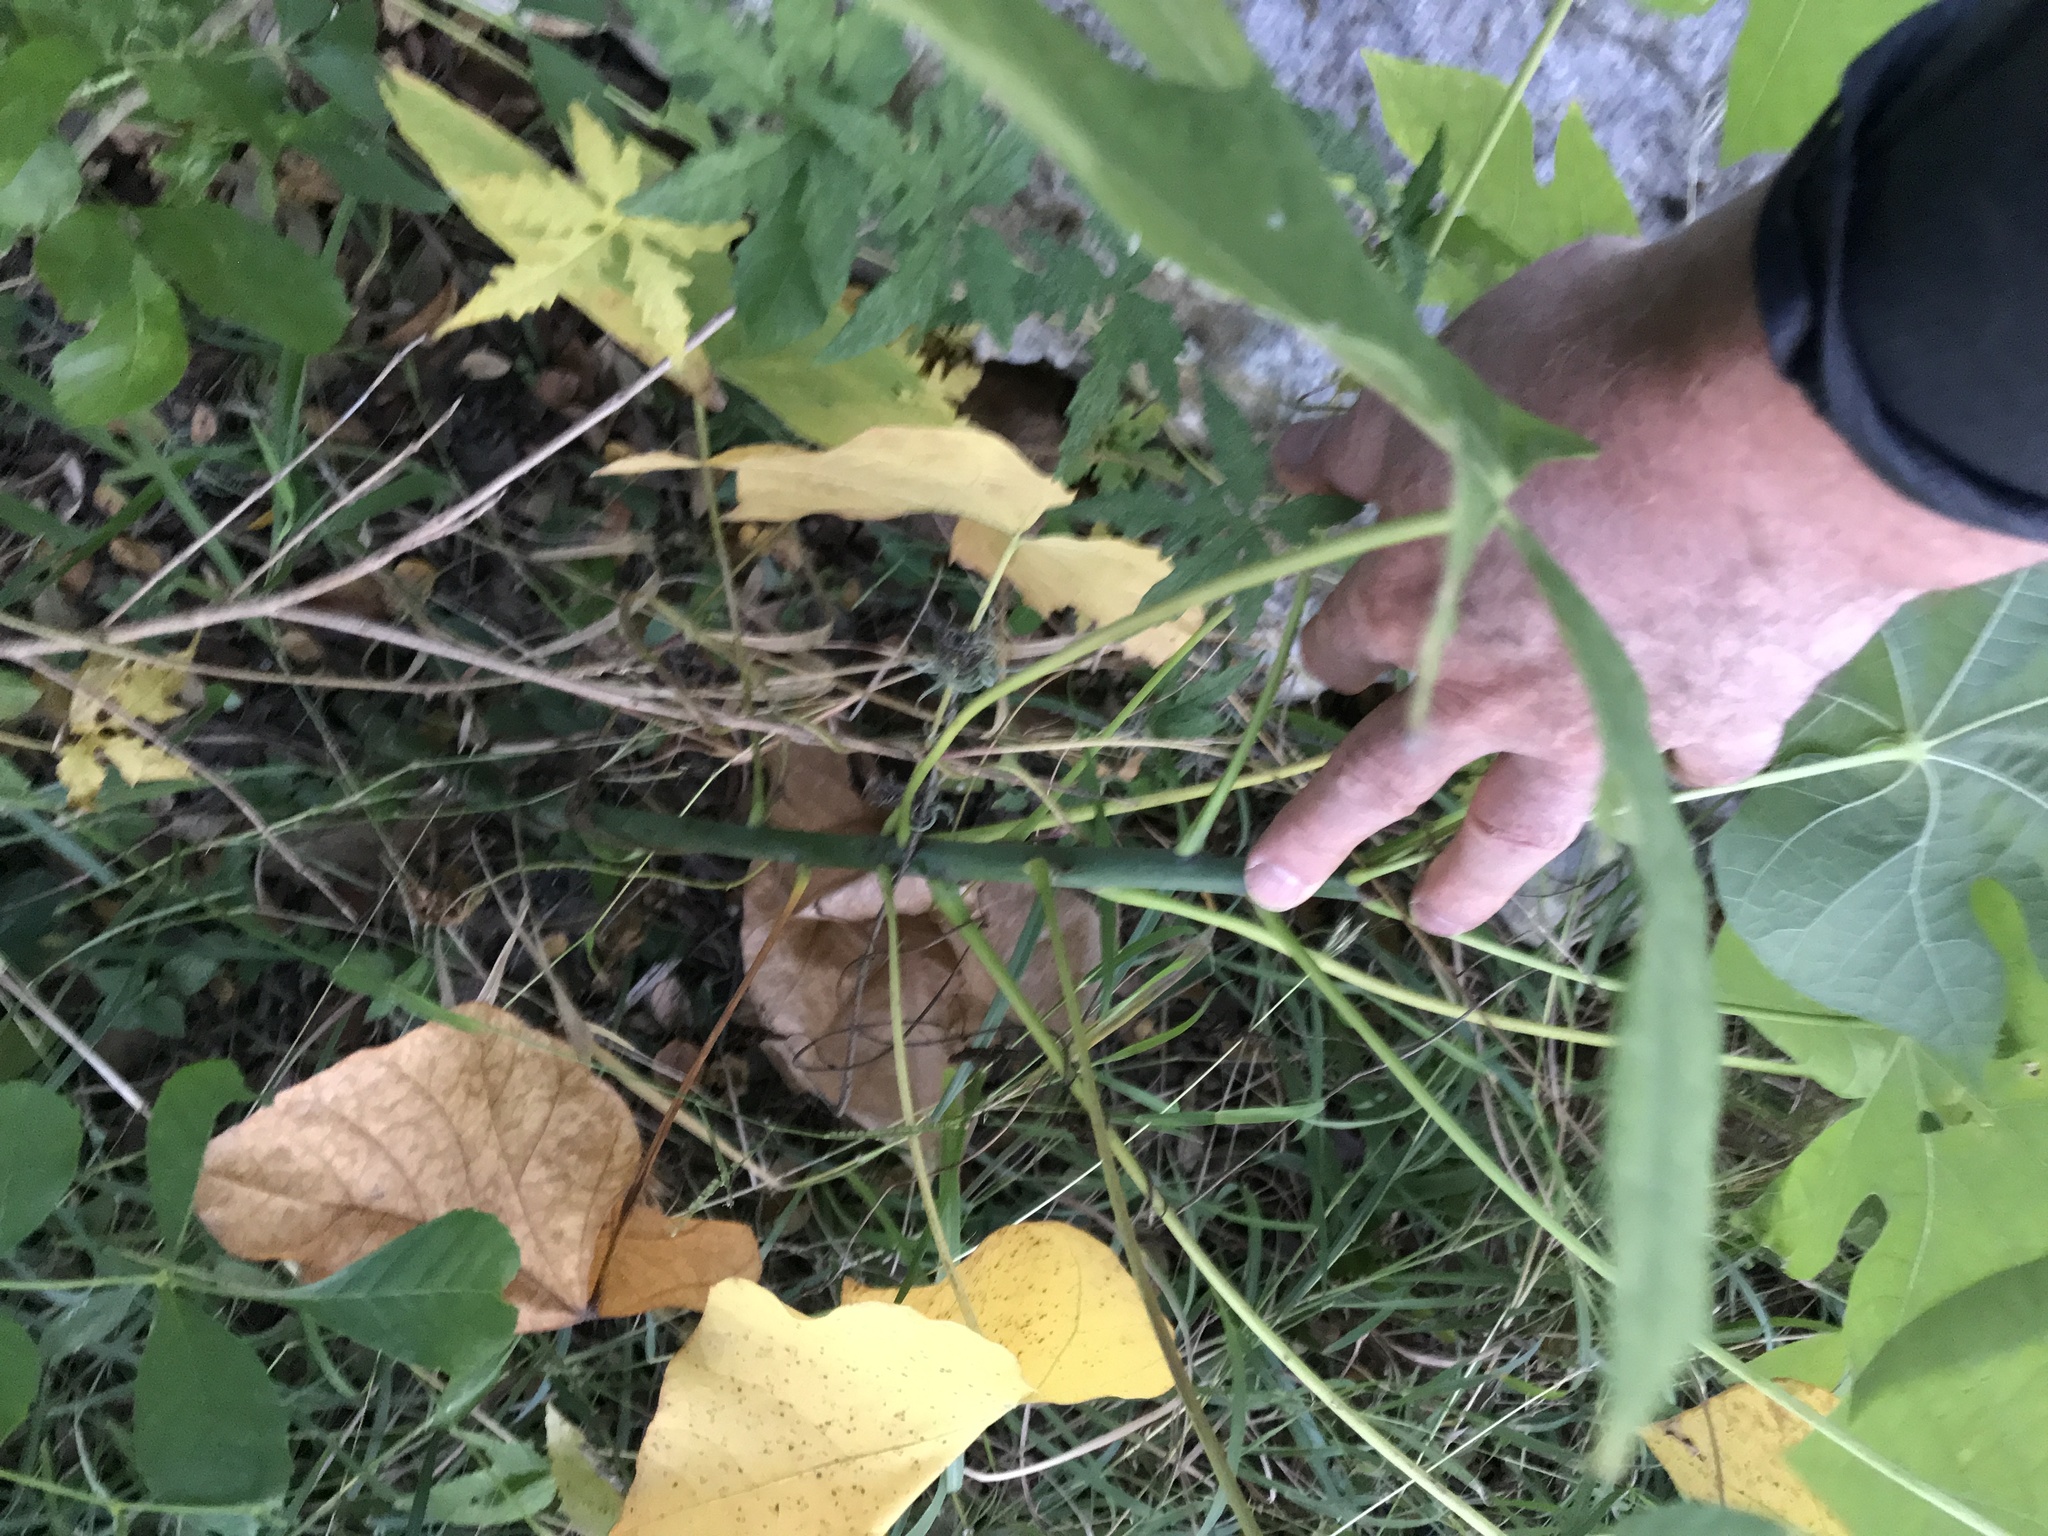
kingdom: Plantae
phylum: Tracheophyta
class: Magnoliopsida
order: Malvales
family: Malvaceae
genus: Firmiana
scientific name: Firmiana simplex
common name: Chinese parasoltree
